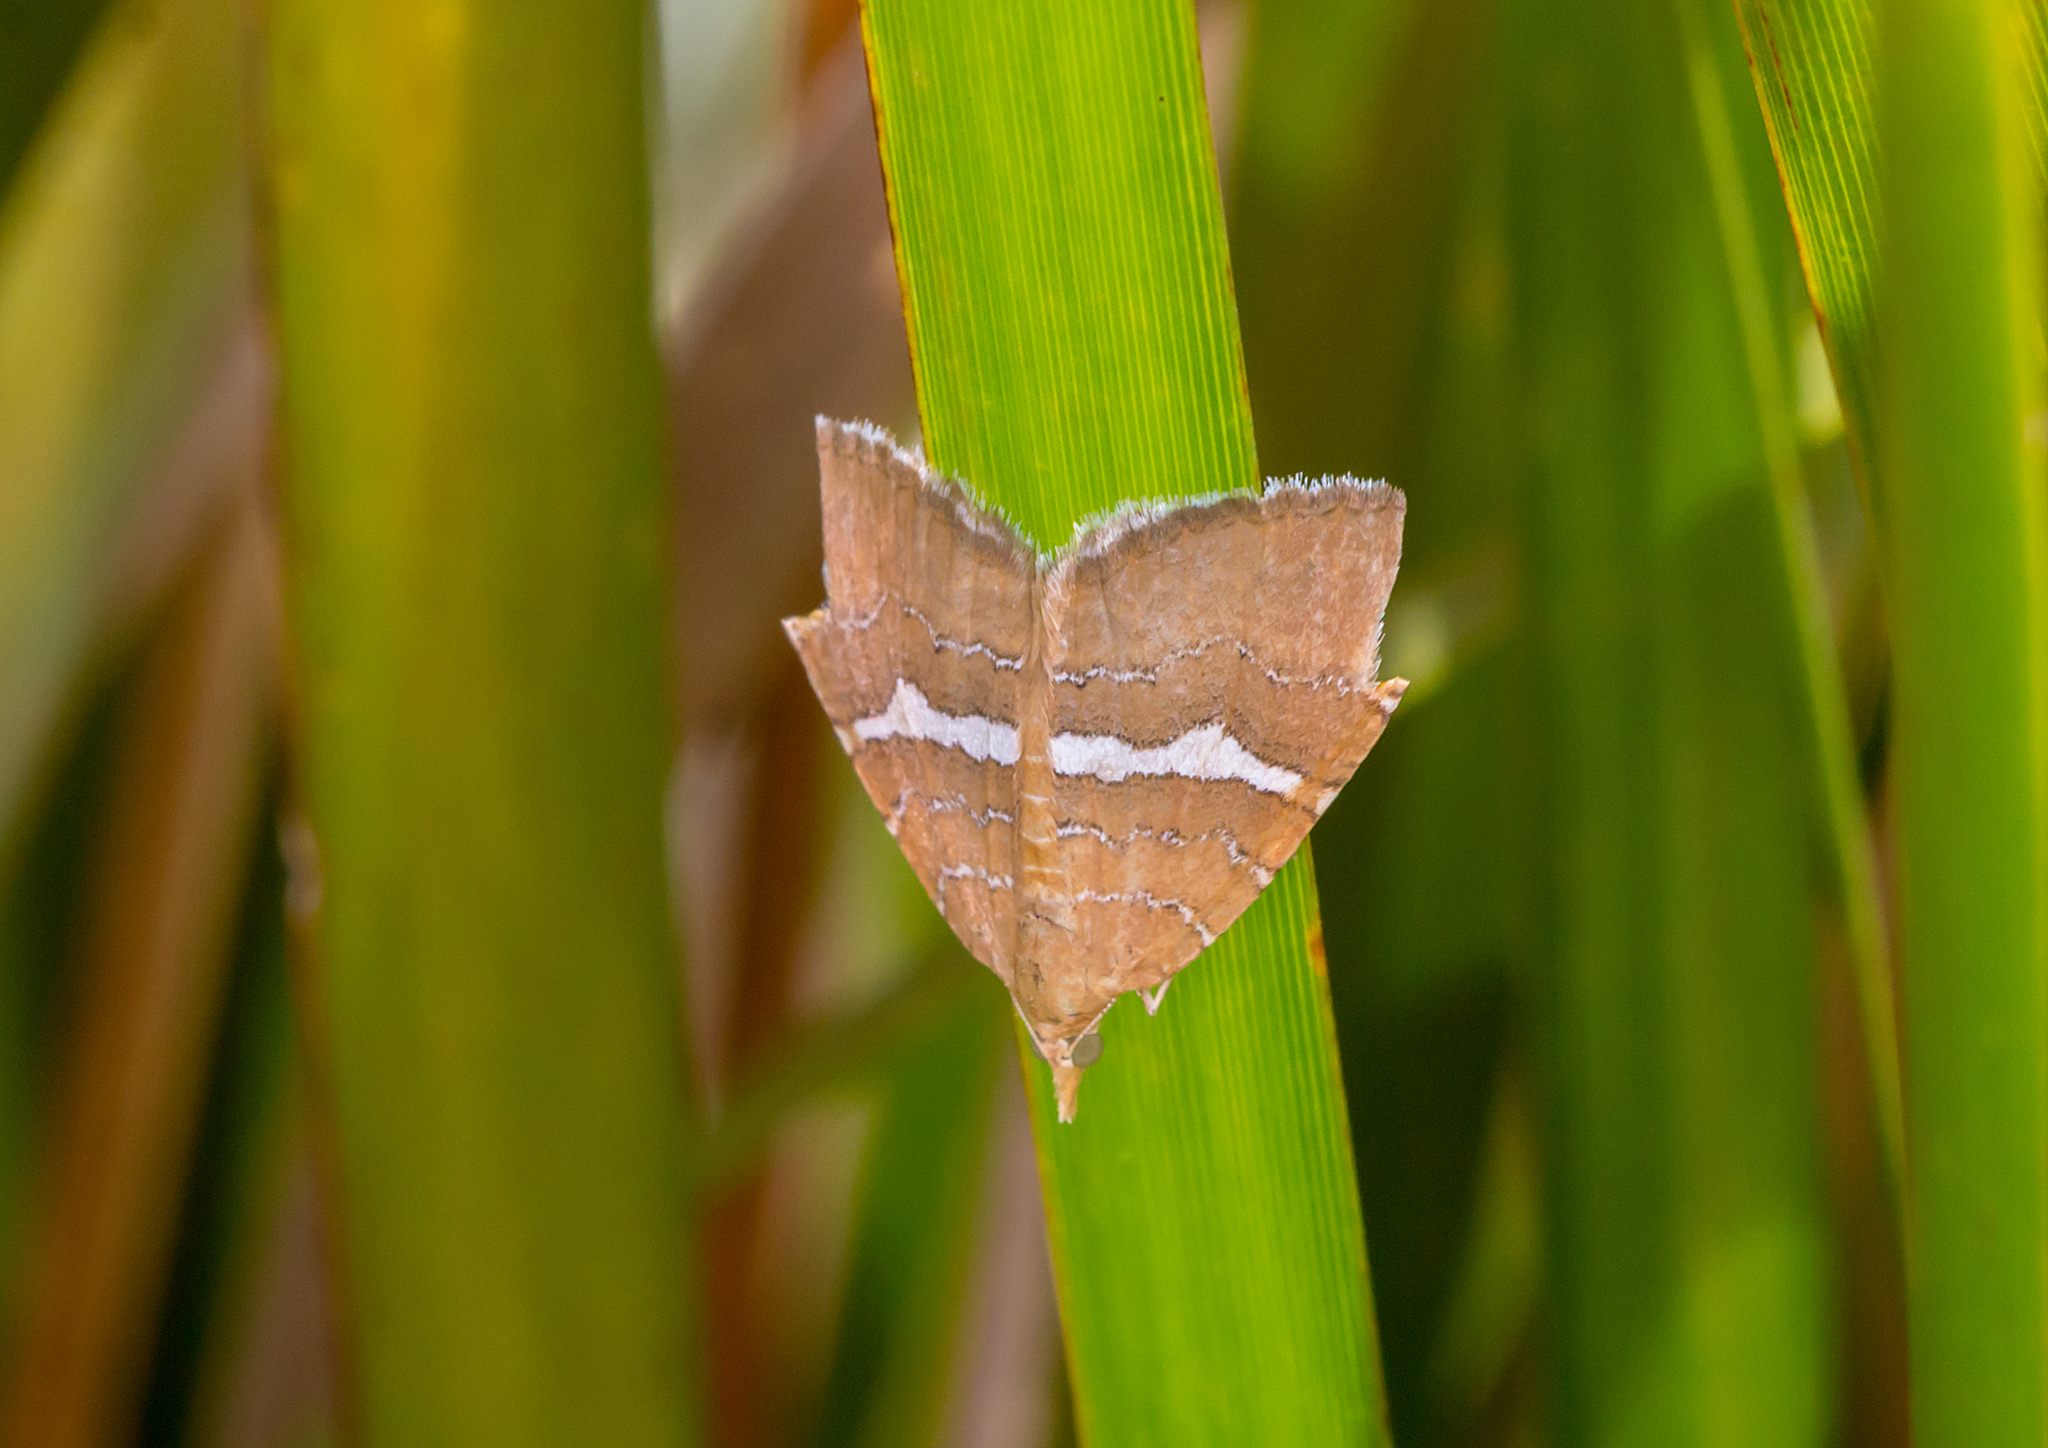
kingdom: Animalia
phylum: Arthropoda
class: Insecta
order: Lepidoptera
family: Geometridae
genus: Chrysolarentia
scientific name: Chrysolarentia leucozona
